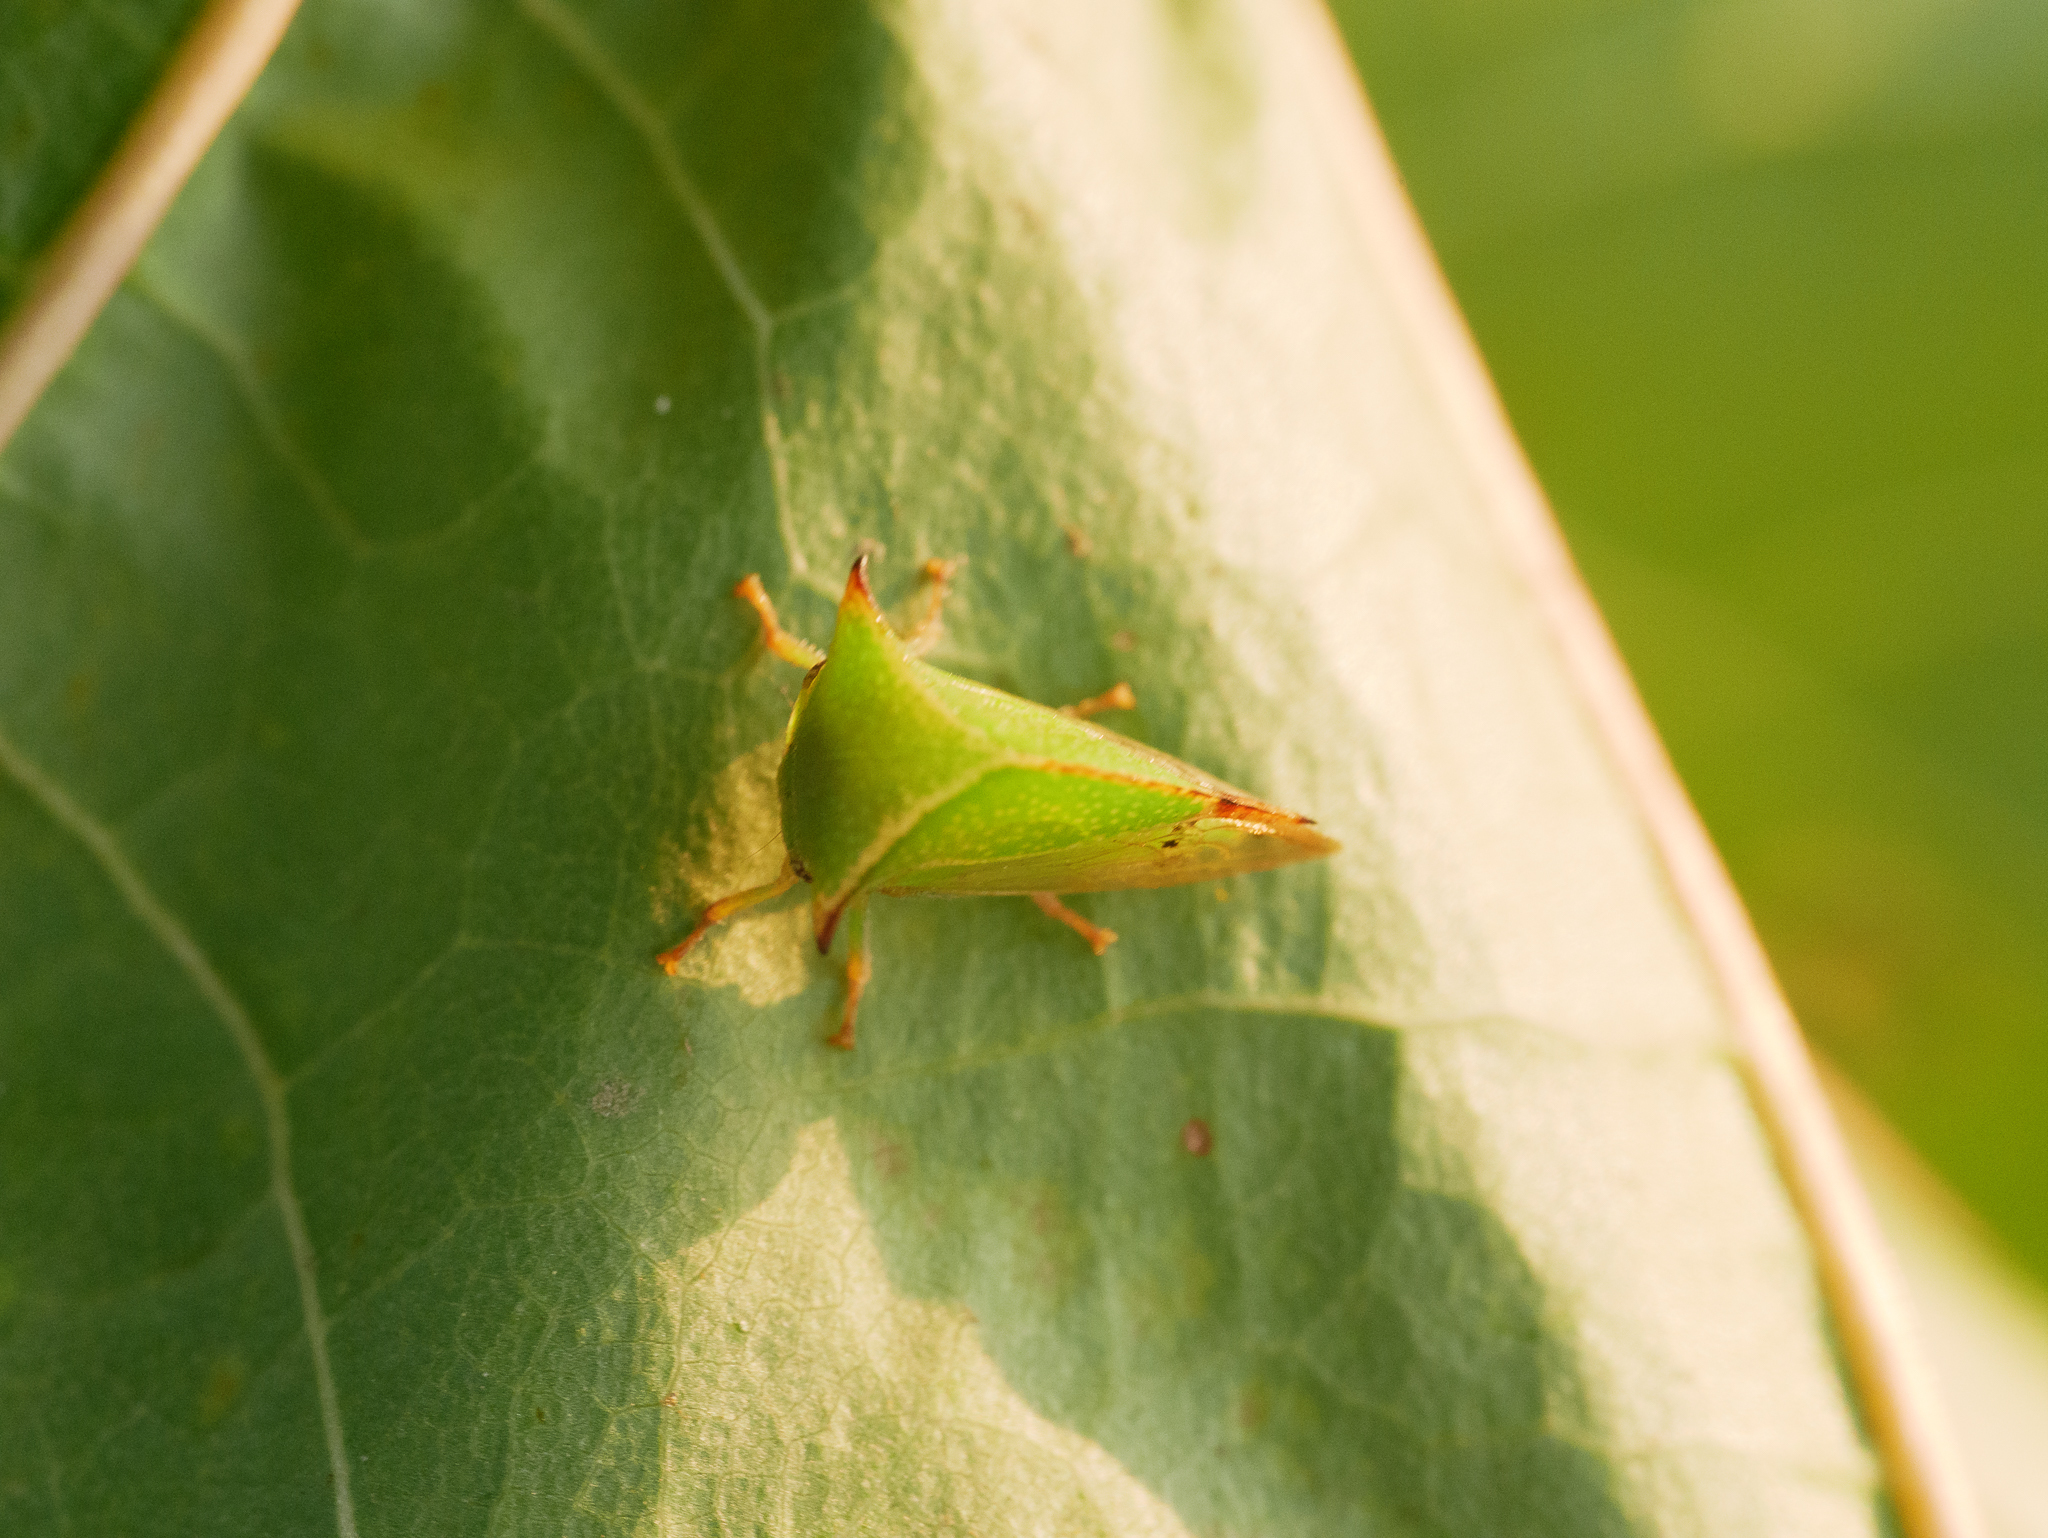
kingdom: Animalia
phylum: Arthropoda
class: Insecta
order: Hemiptera
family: Membracidae
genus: Stictocephala
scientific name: Stictocephala bisonia
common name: American buffalo treehopper
